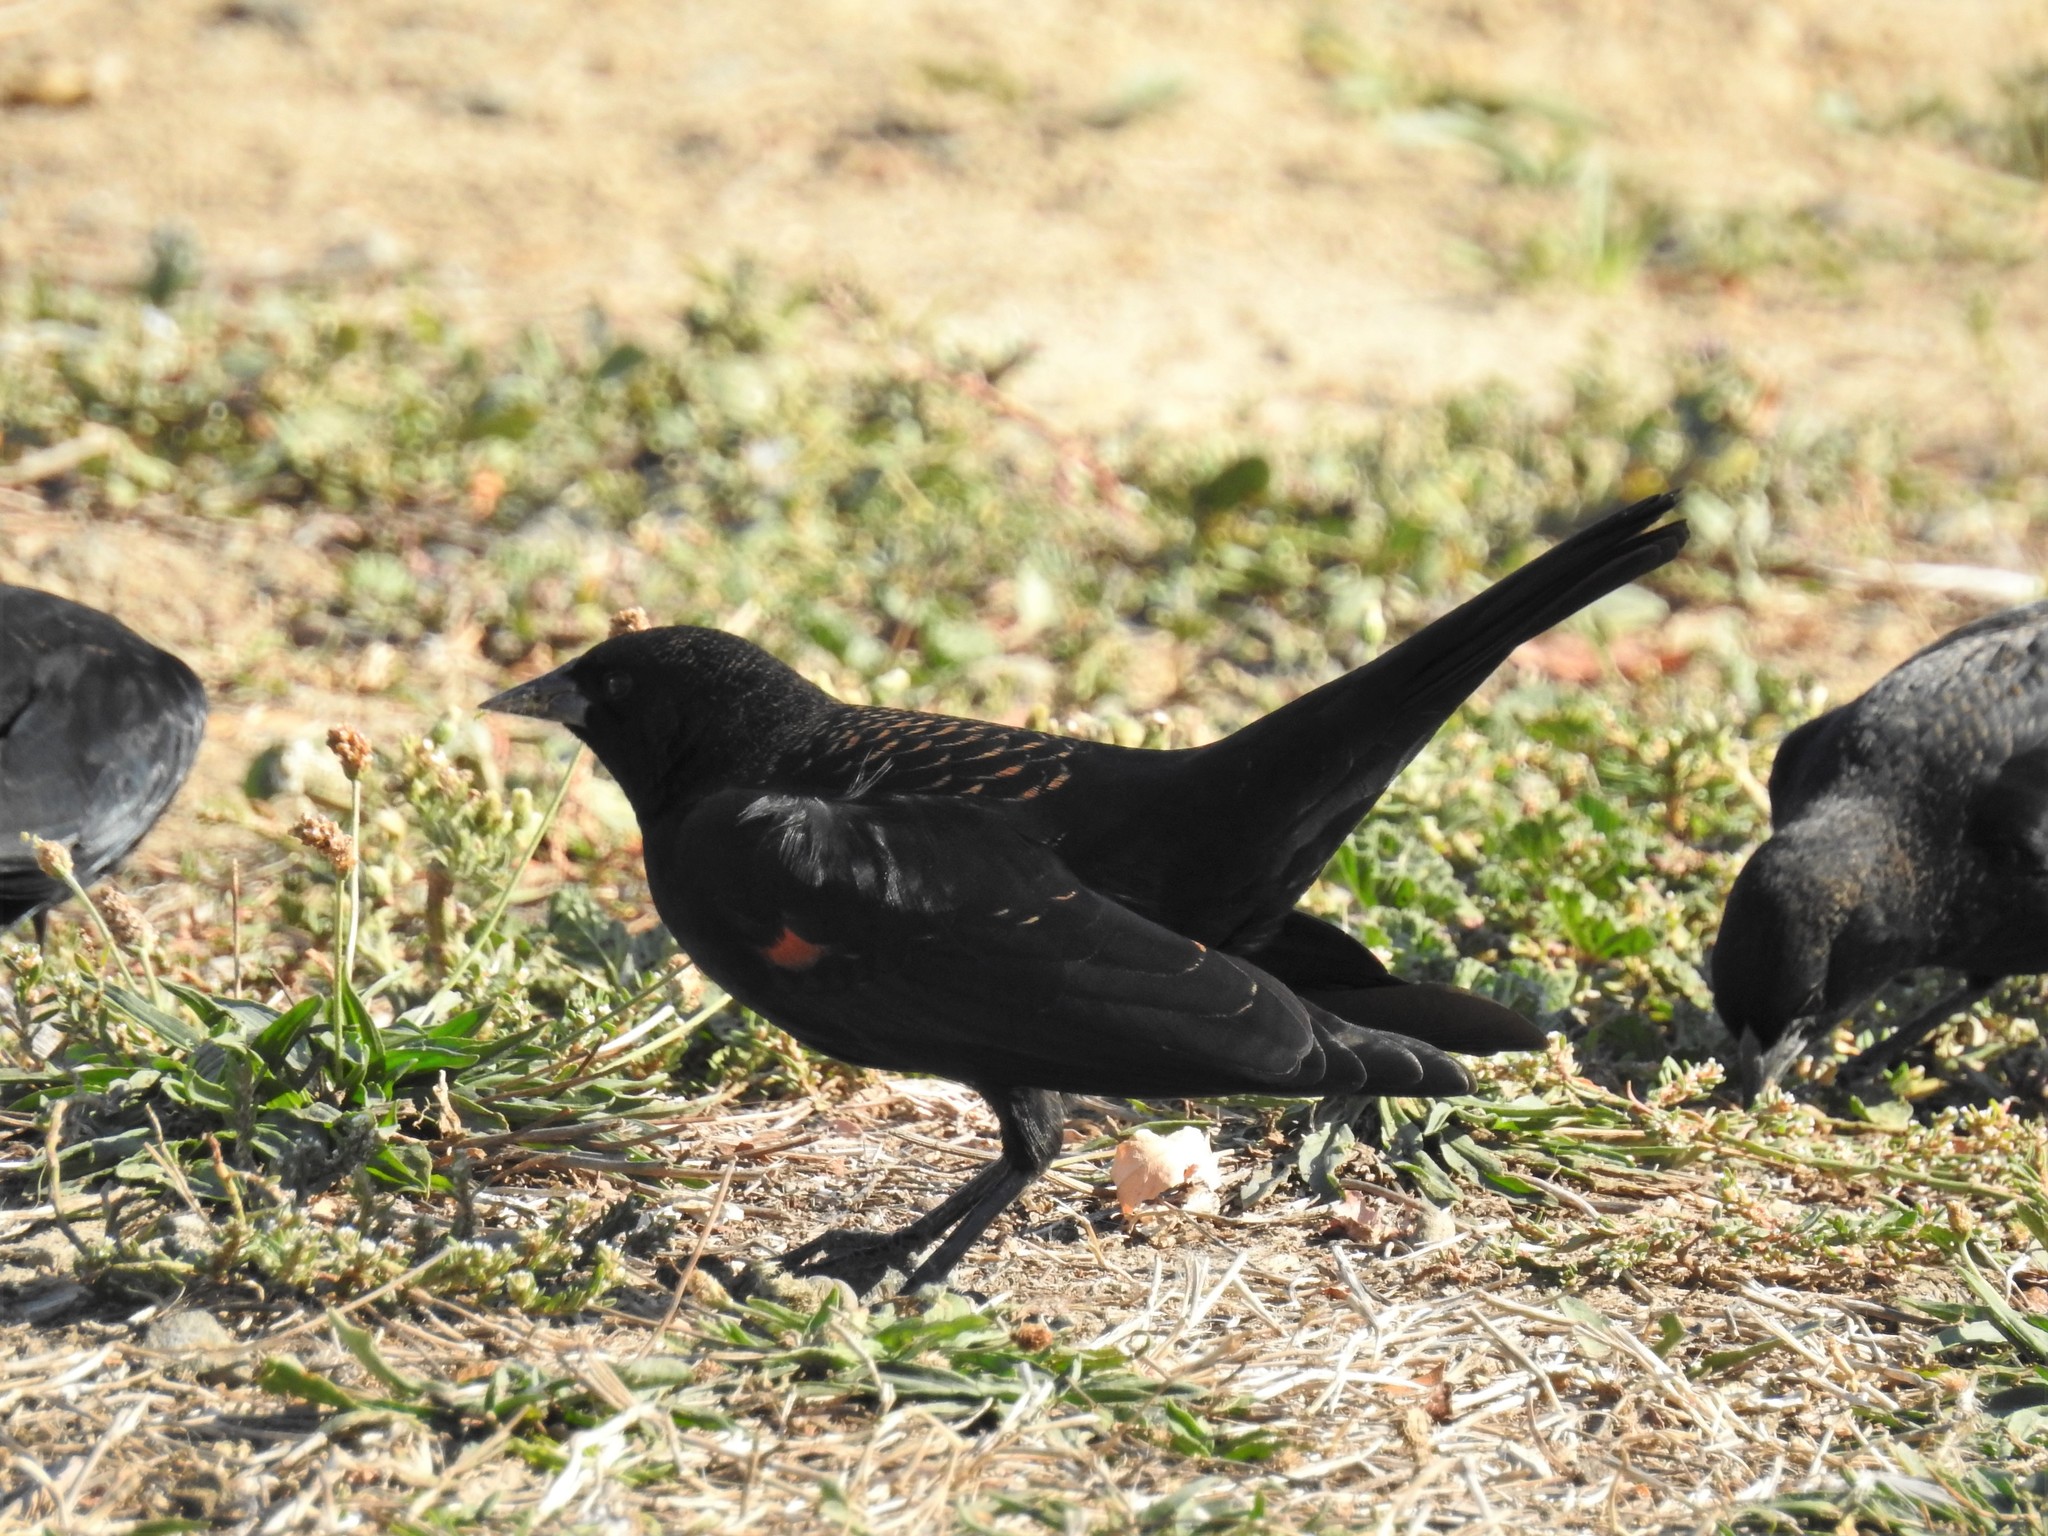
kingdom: Animalia
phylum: Chordata
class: Aves
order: Passeriformes
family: Icteridae
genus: Agelaius
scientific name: Agelaius phoeniceus
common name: Red-winged blackbird
